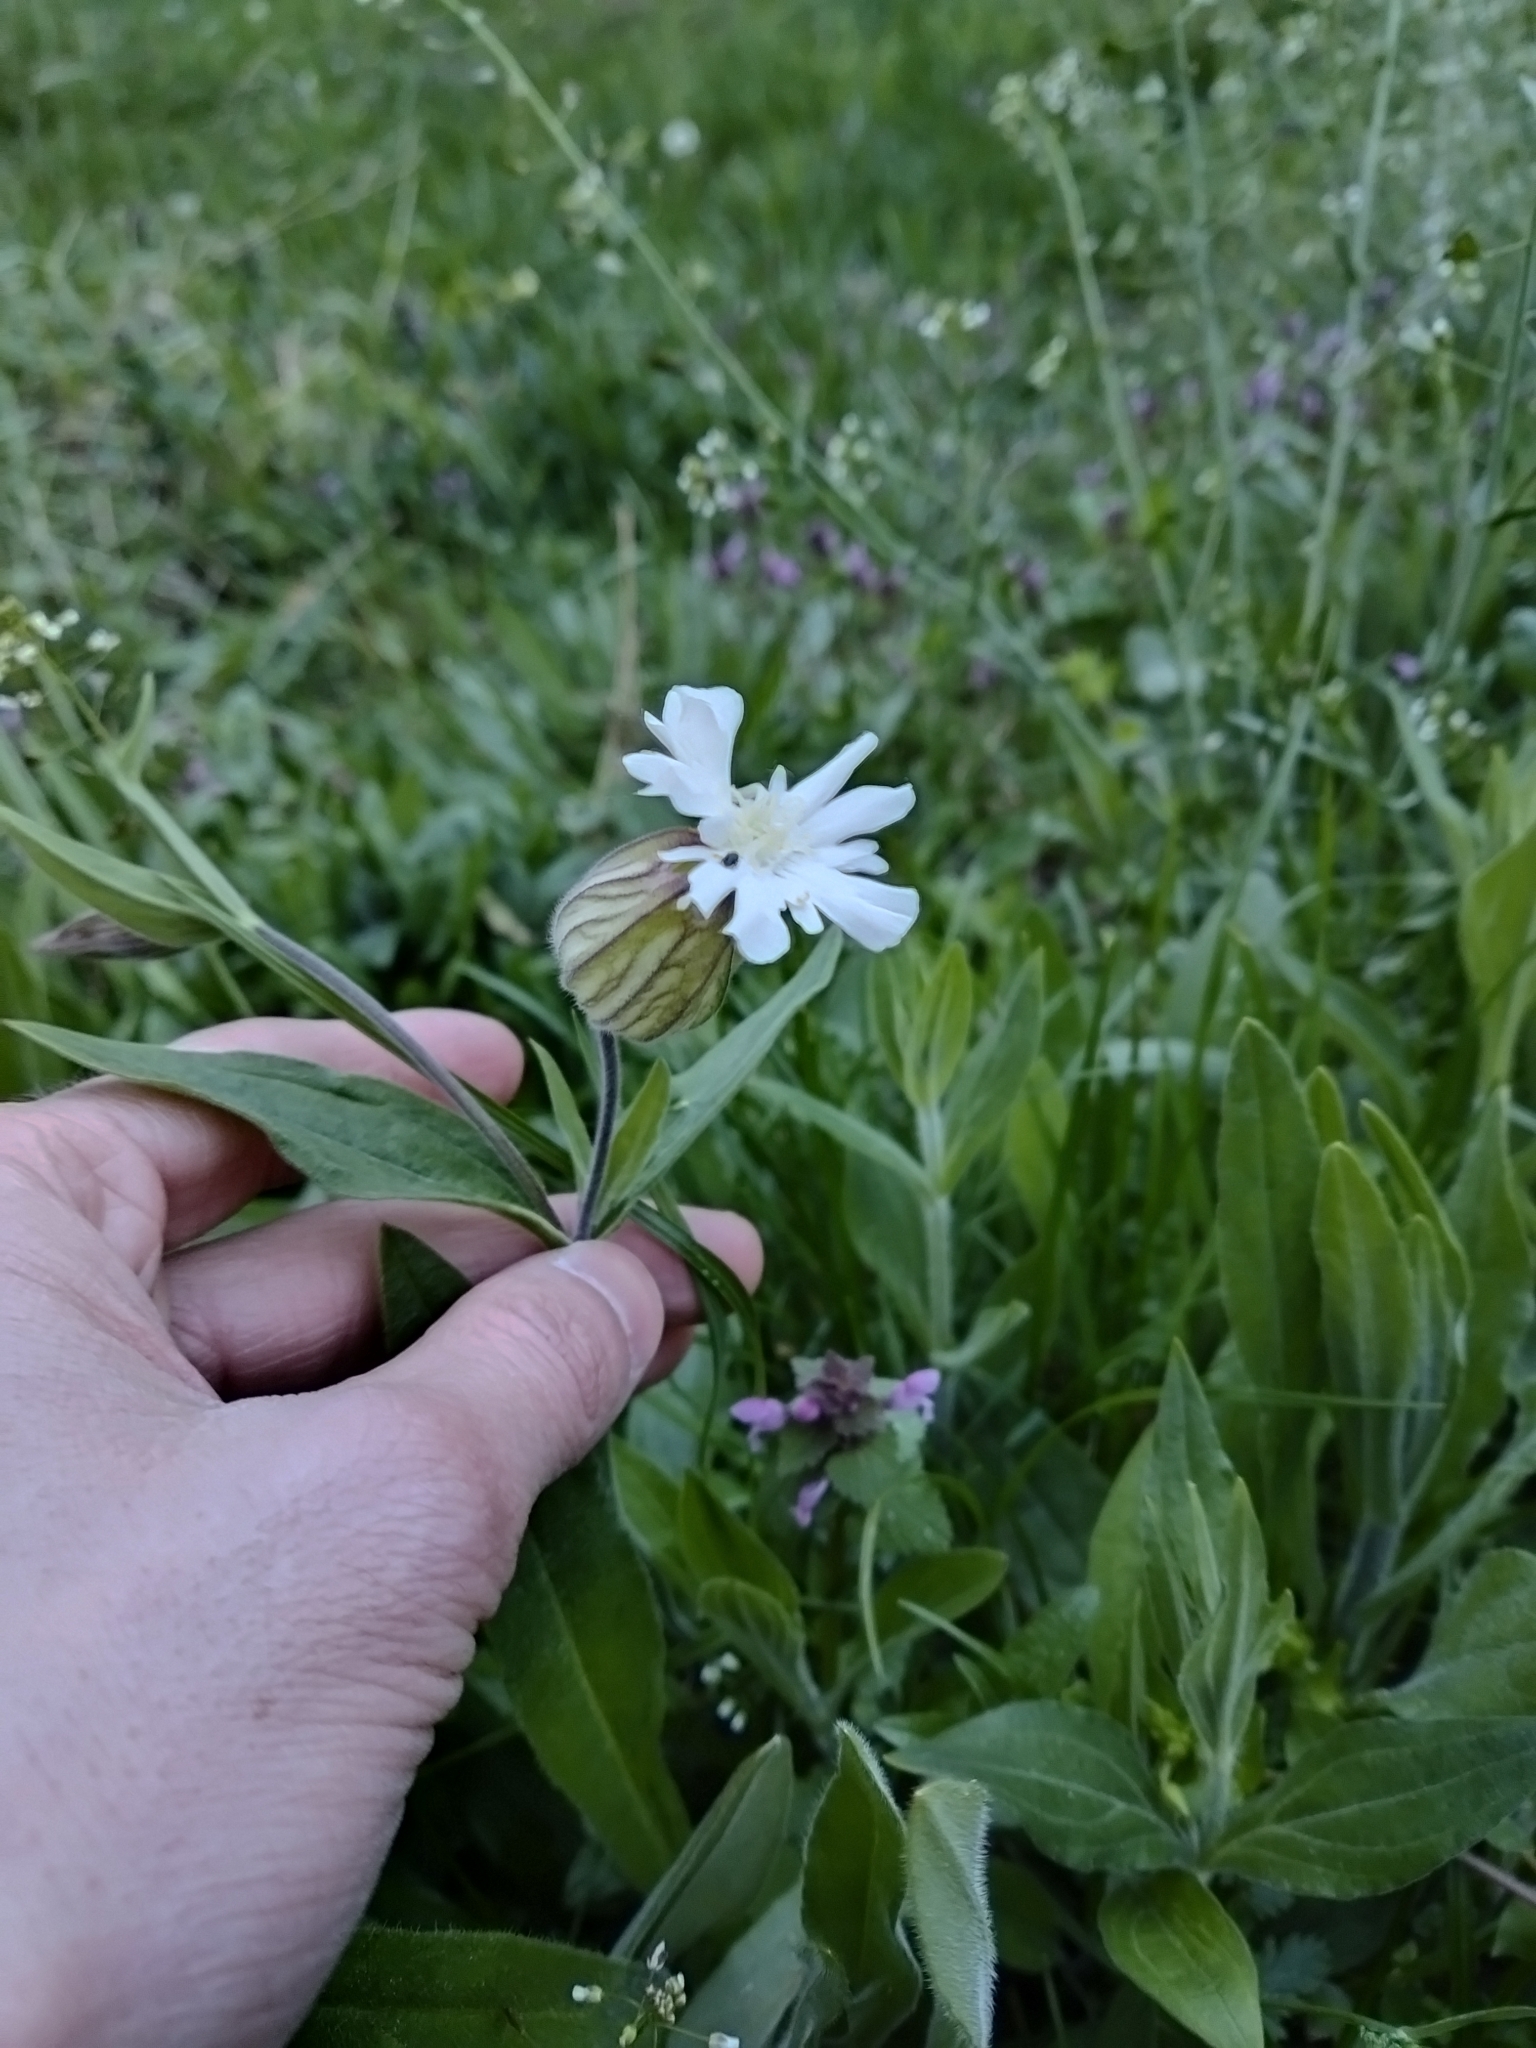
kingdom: Plantae
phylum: Tracheophyta
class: Magnoliopsida
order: Caryophyllales
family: Caryophyllaceae
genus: Silene
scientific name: Silene latifolia
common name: White campion
